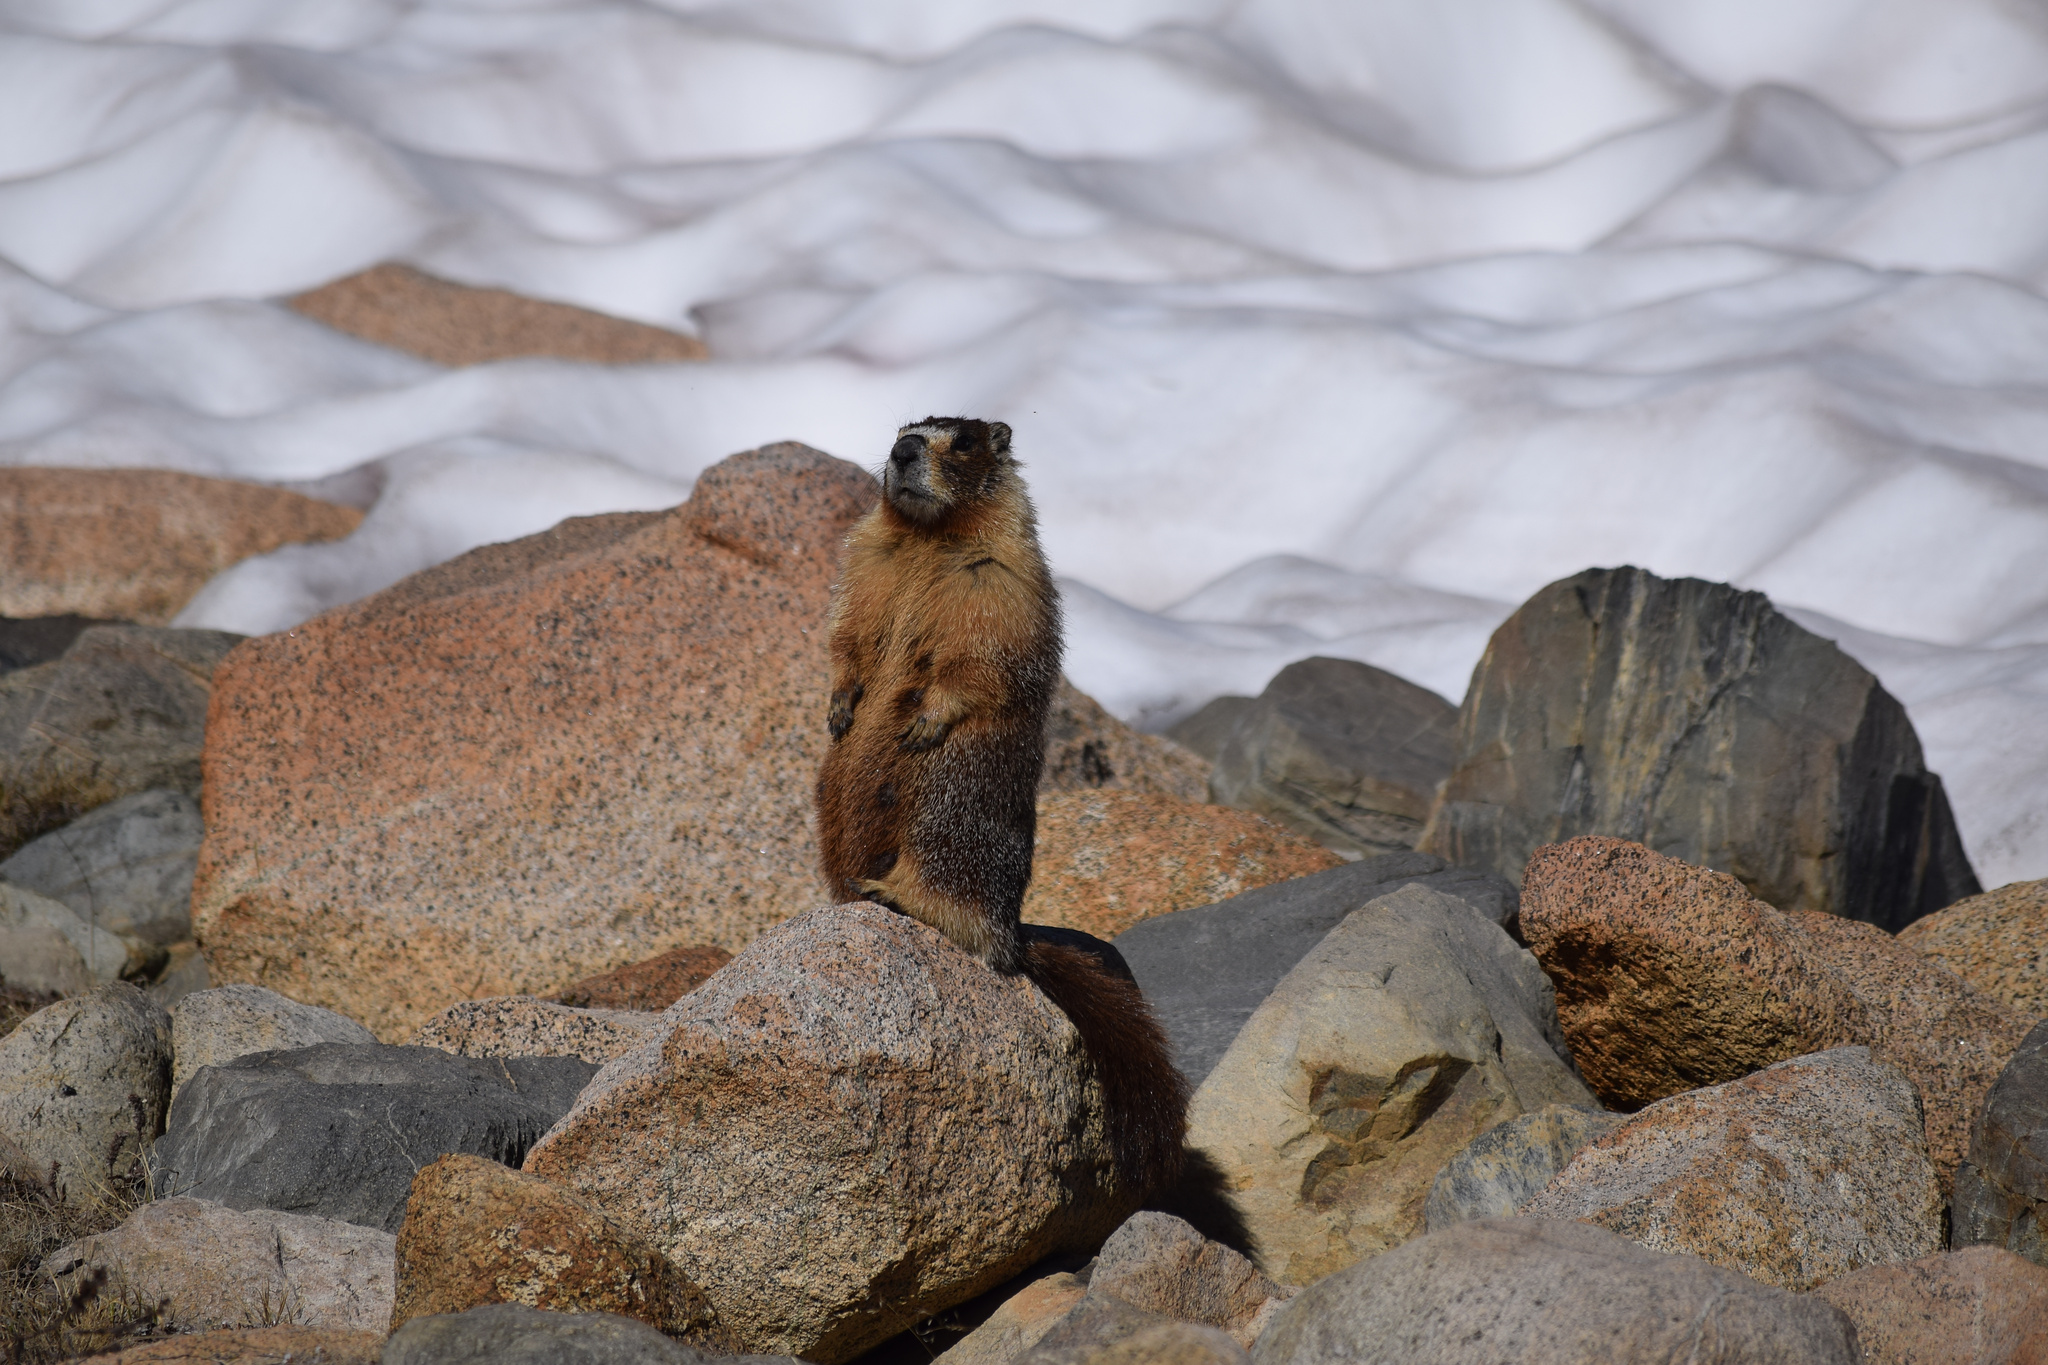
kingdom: Animalia
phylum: Chordata
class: Mammalia
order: Rodentia
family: Sciuridae
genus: Marmota
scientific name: Marmota flaviventris
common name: Yellow-bellied marmot
